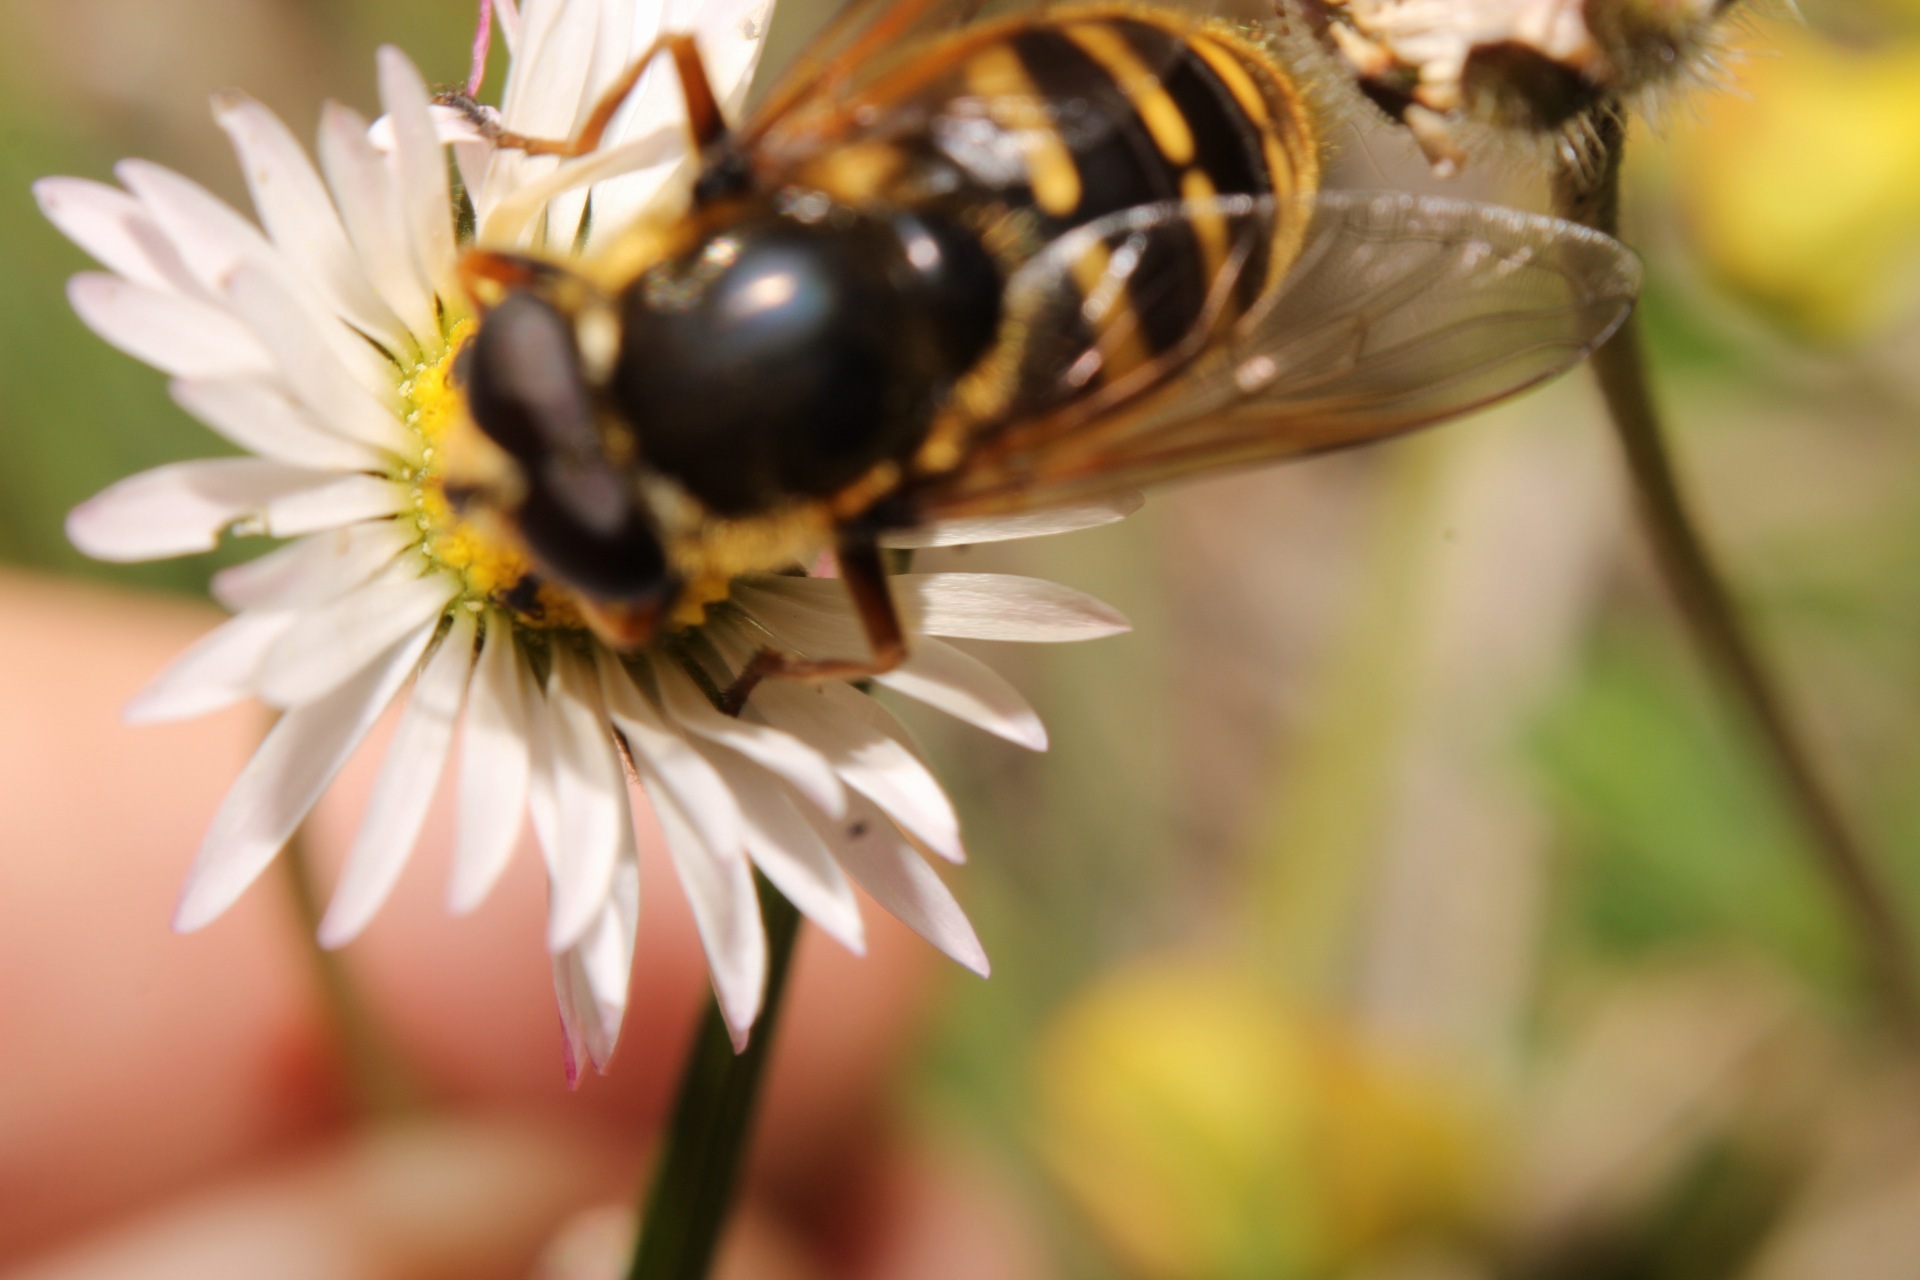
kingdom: Animalia
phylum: Arthropoda
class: Insecta
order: Diptera
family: Syrphidae
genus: Sericomyia
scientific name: Sericomyia silentis
